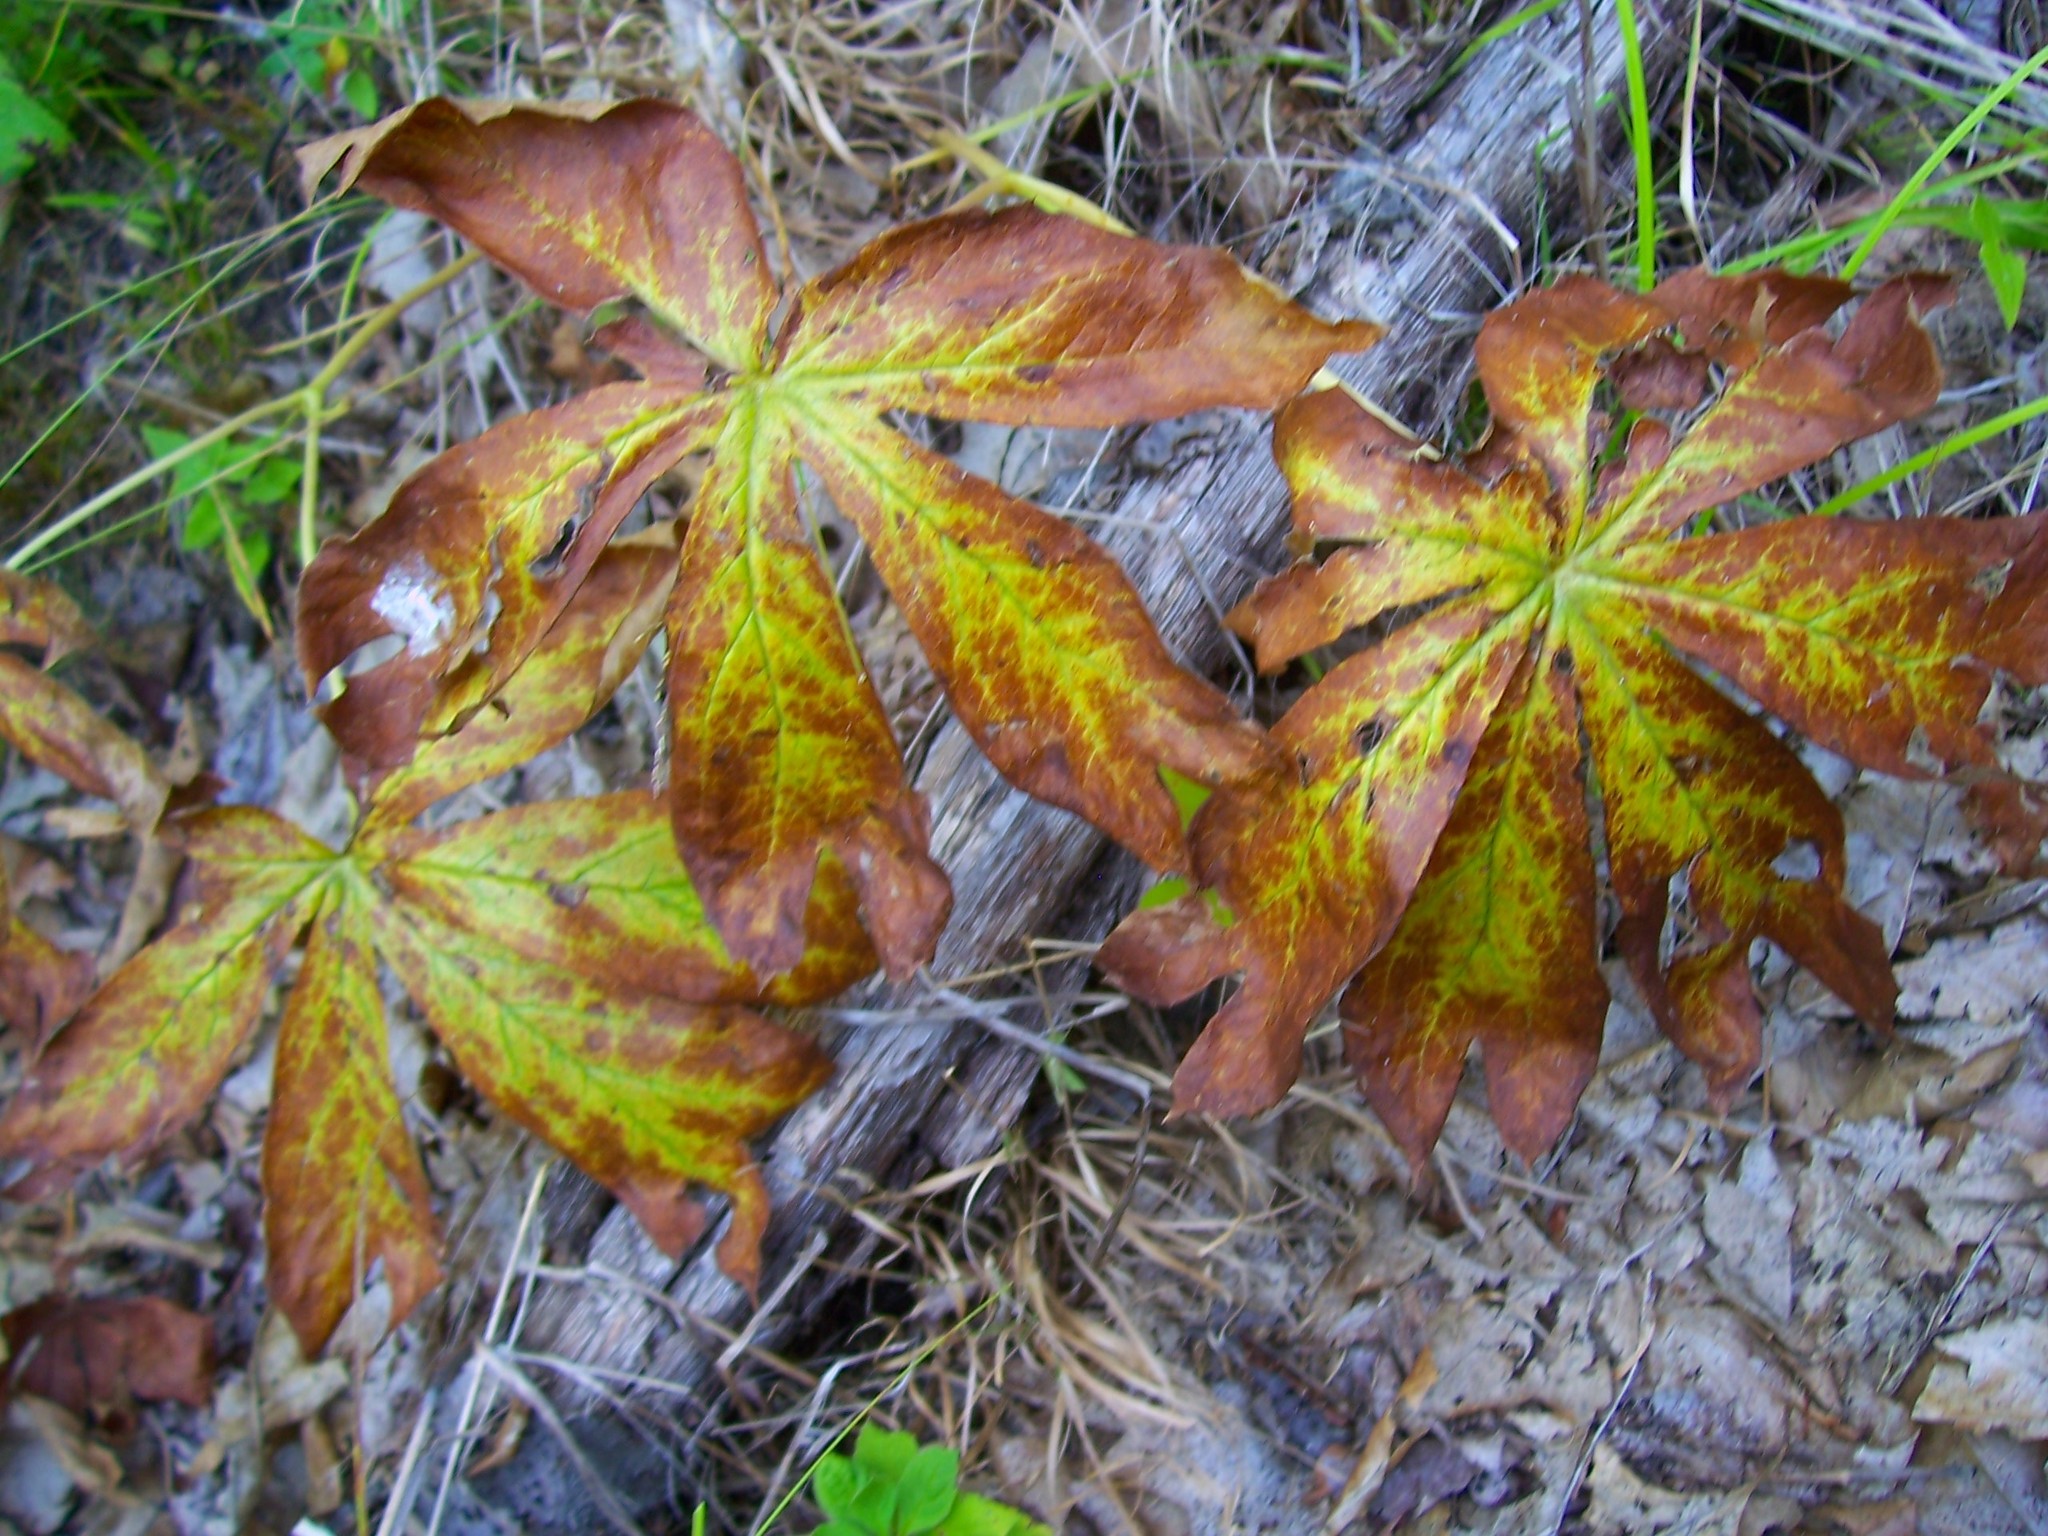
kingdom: Plantae
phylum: Tracheophyta
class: Magnoliopsida
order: Ranunculales
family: Berberidaceae
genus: Podophyllum
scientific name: Podophyllum peltatum
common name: Wild mandrake
